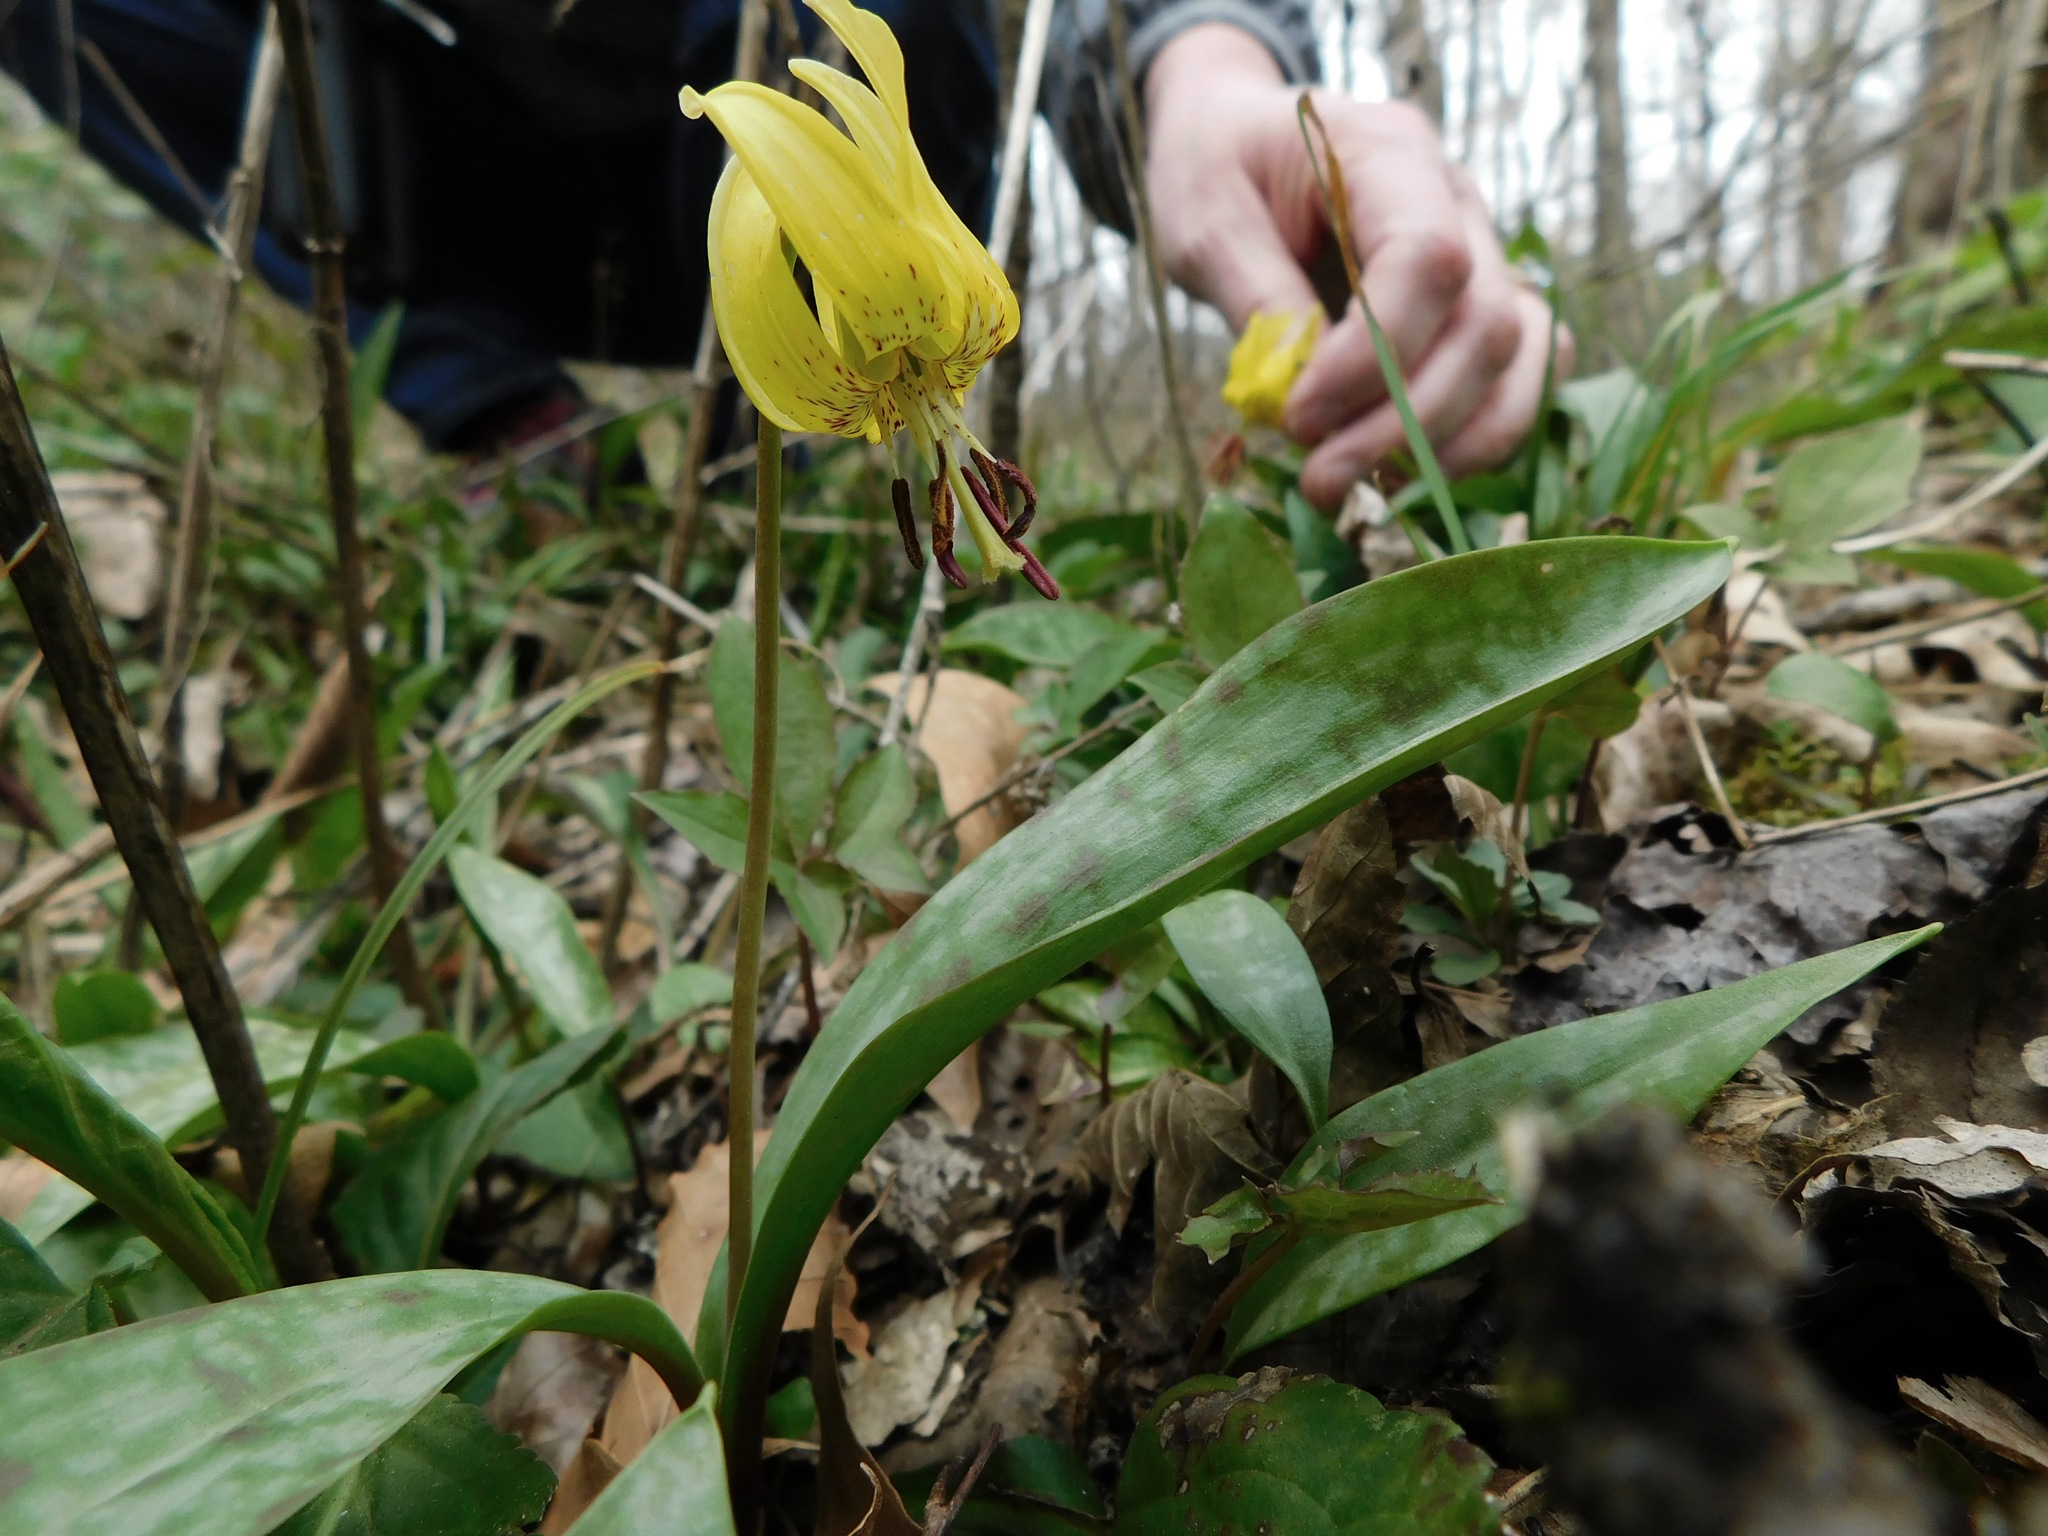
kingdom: Plantae
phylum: Tracheophyta
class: Liliopsida
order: Liliales
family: Liliaceae
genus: Erythronium
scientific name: Erythronium umbilicatum
